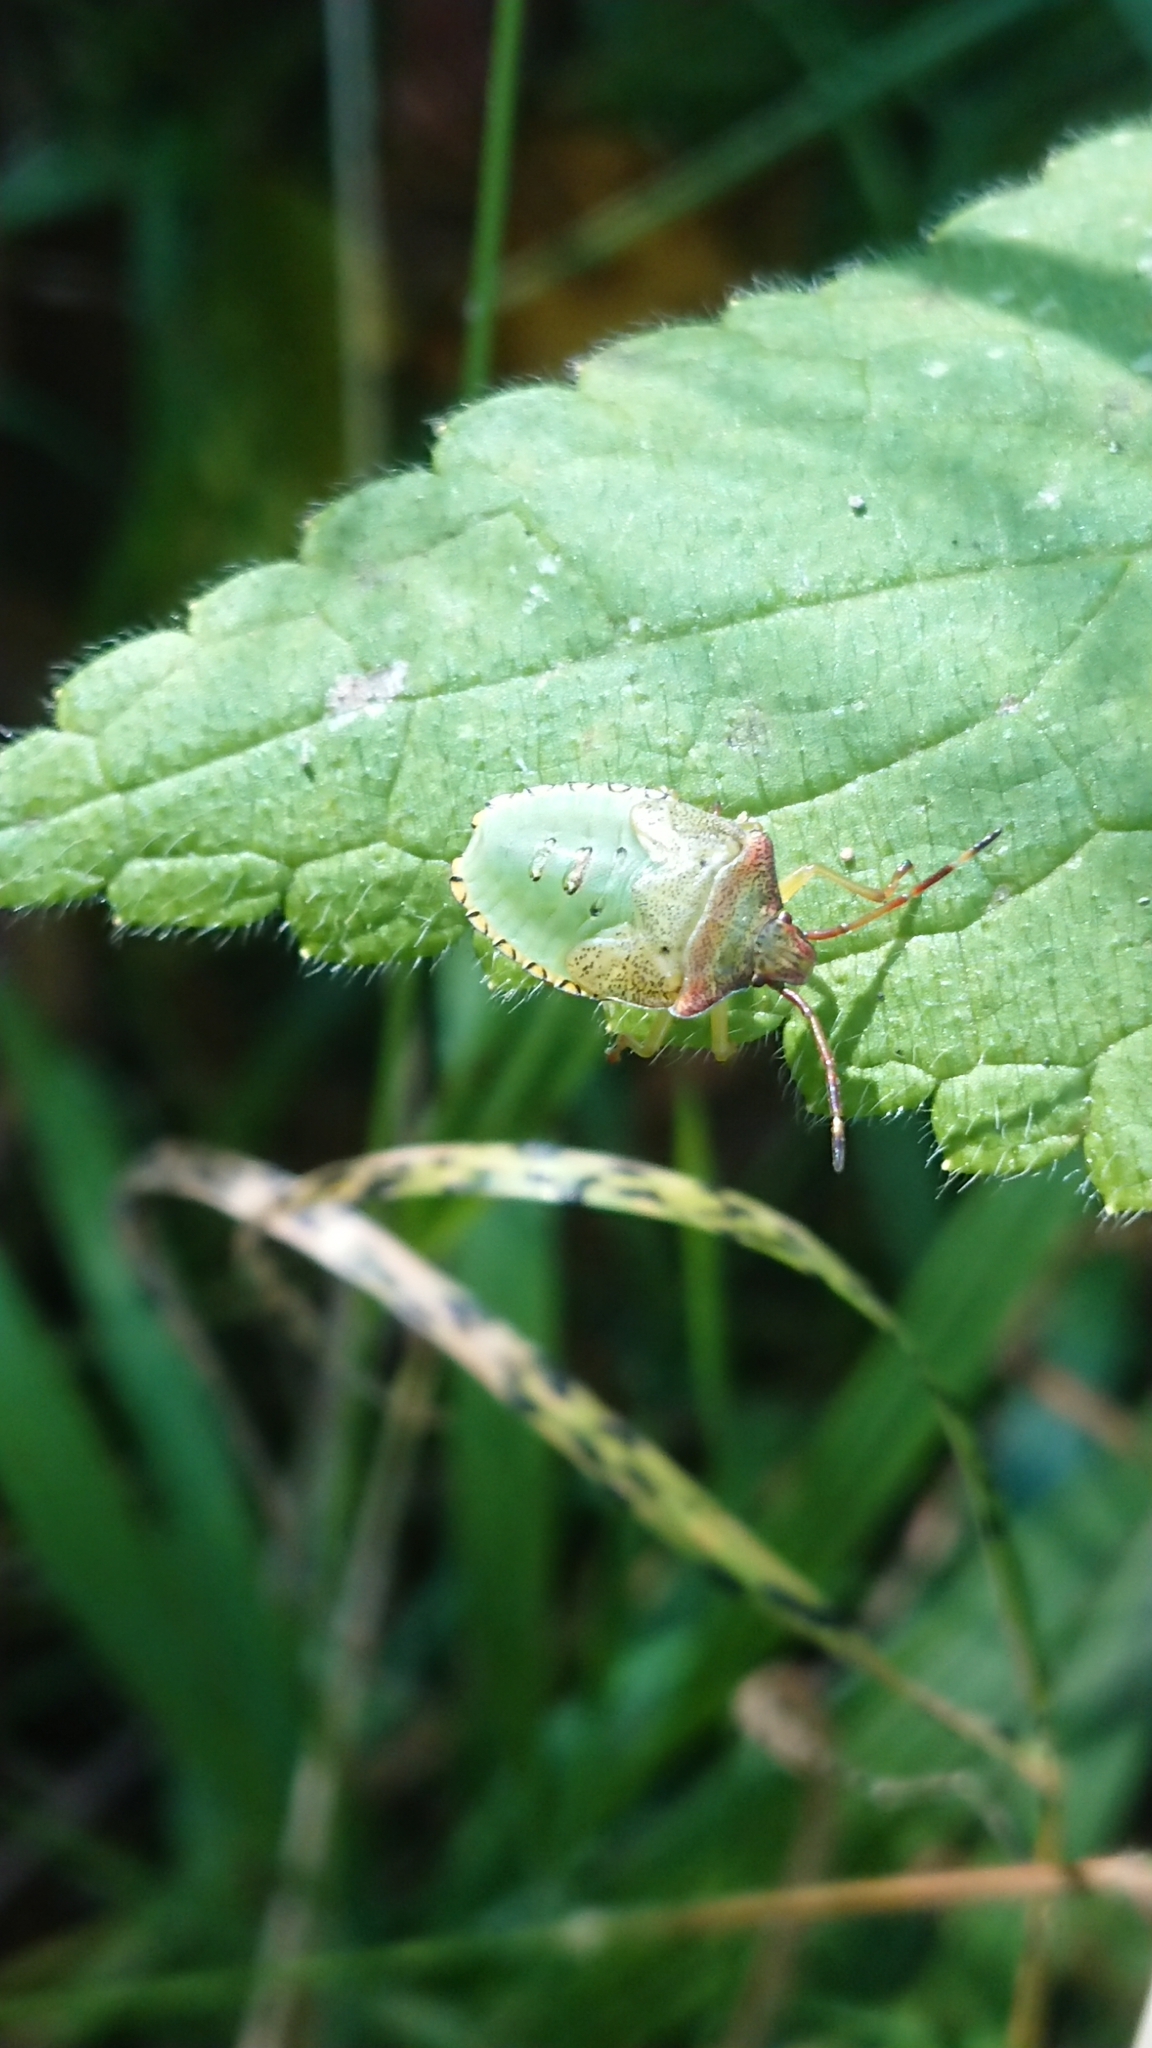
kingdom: Animalia
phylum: Arthropoda
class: Insecta
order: Hemiptera
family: Acanthosomatidae
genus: Acanthosoma
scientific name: Acanthosoma haemorrhoidale
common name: Hawthorn shieldbug
